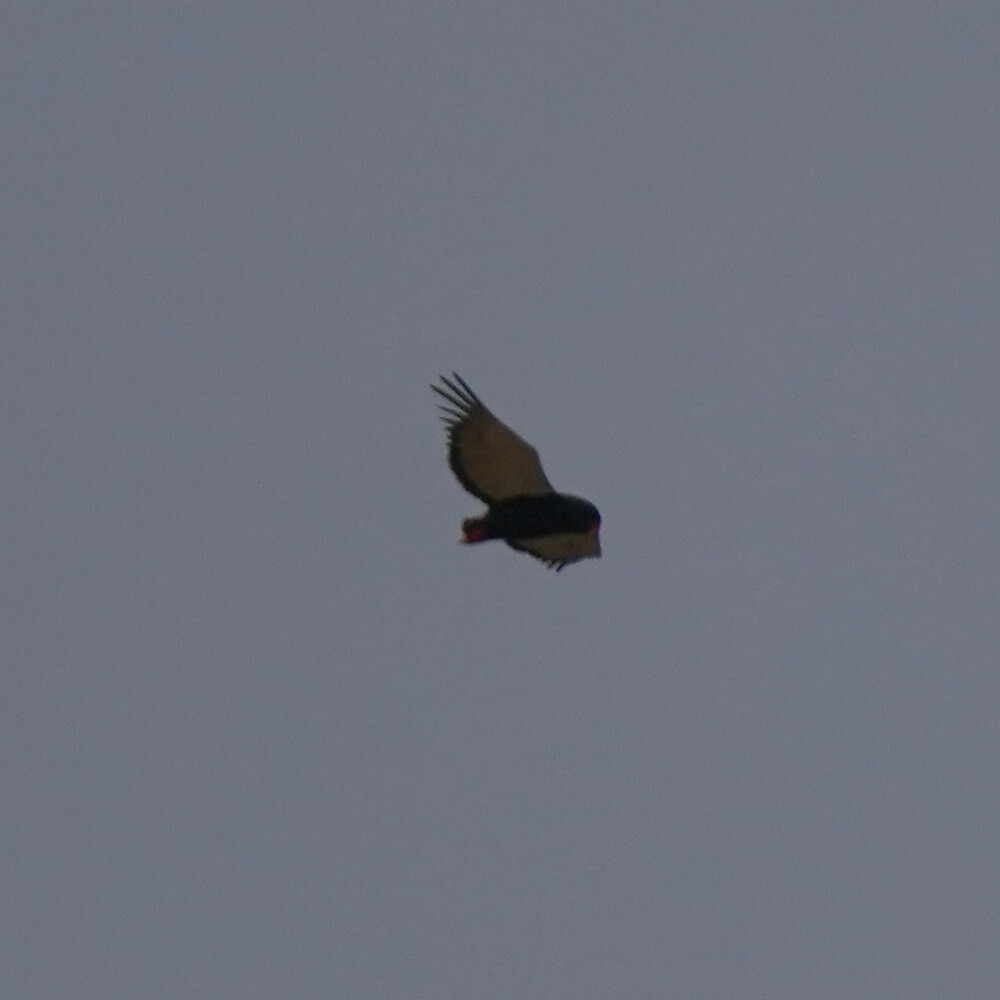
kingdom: Animalia
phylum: Chordata
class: Aves
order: Accipitriformes
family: Accipitridae
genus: Terathopius
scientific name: Terathopius ecaudatus
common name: Bateleur
